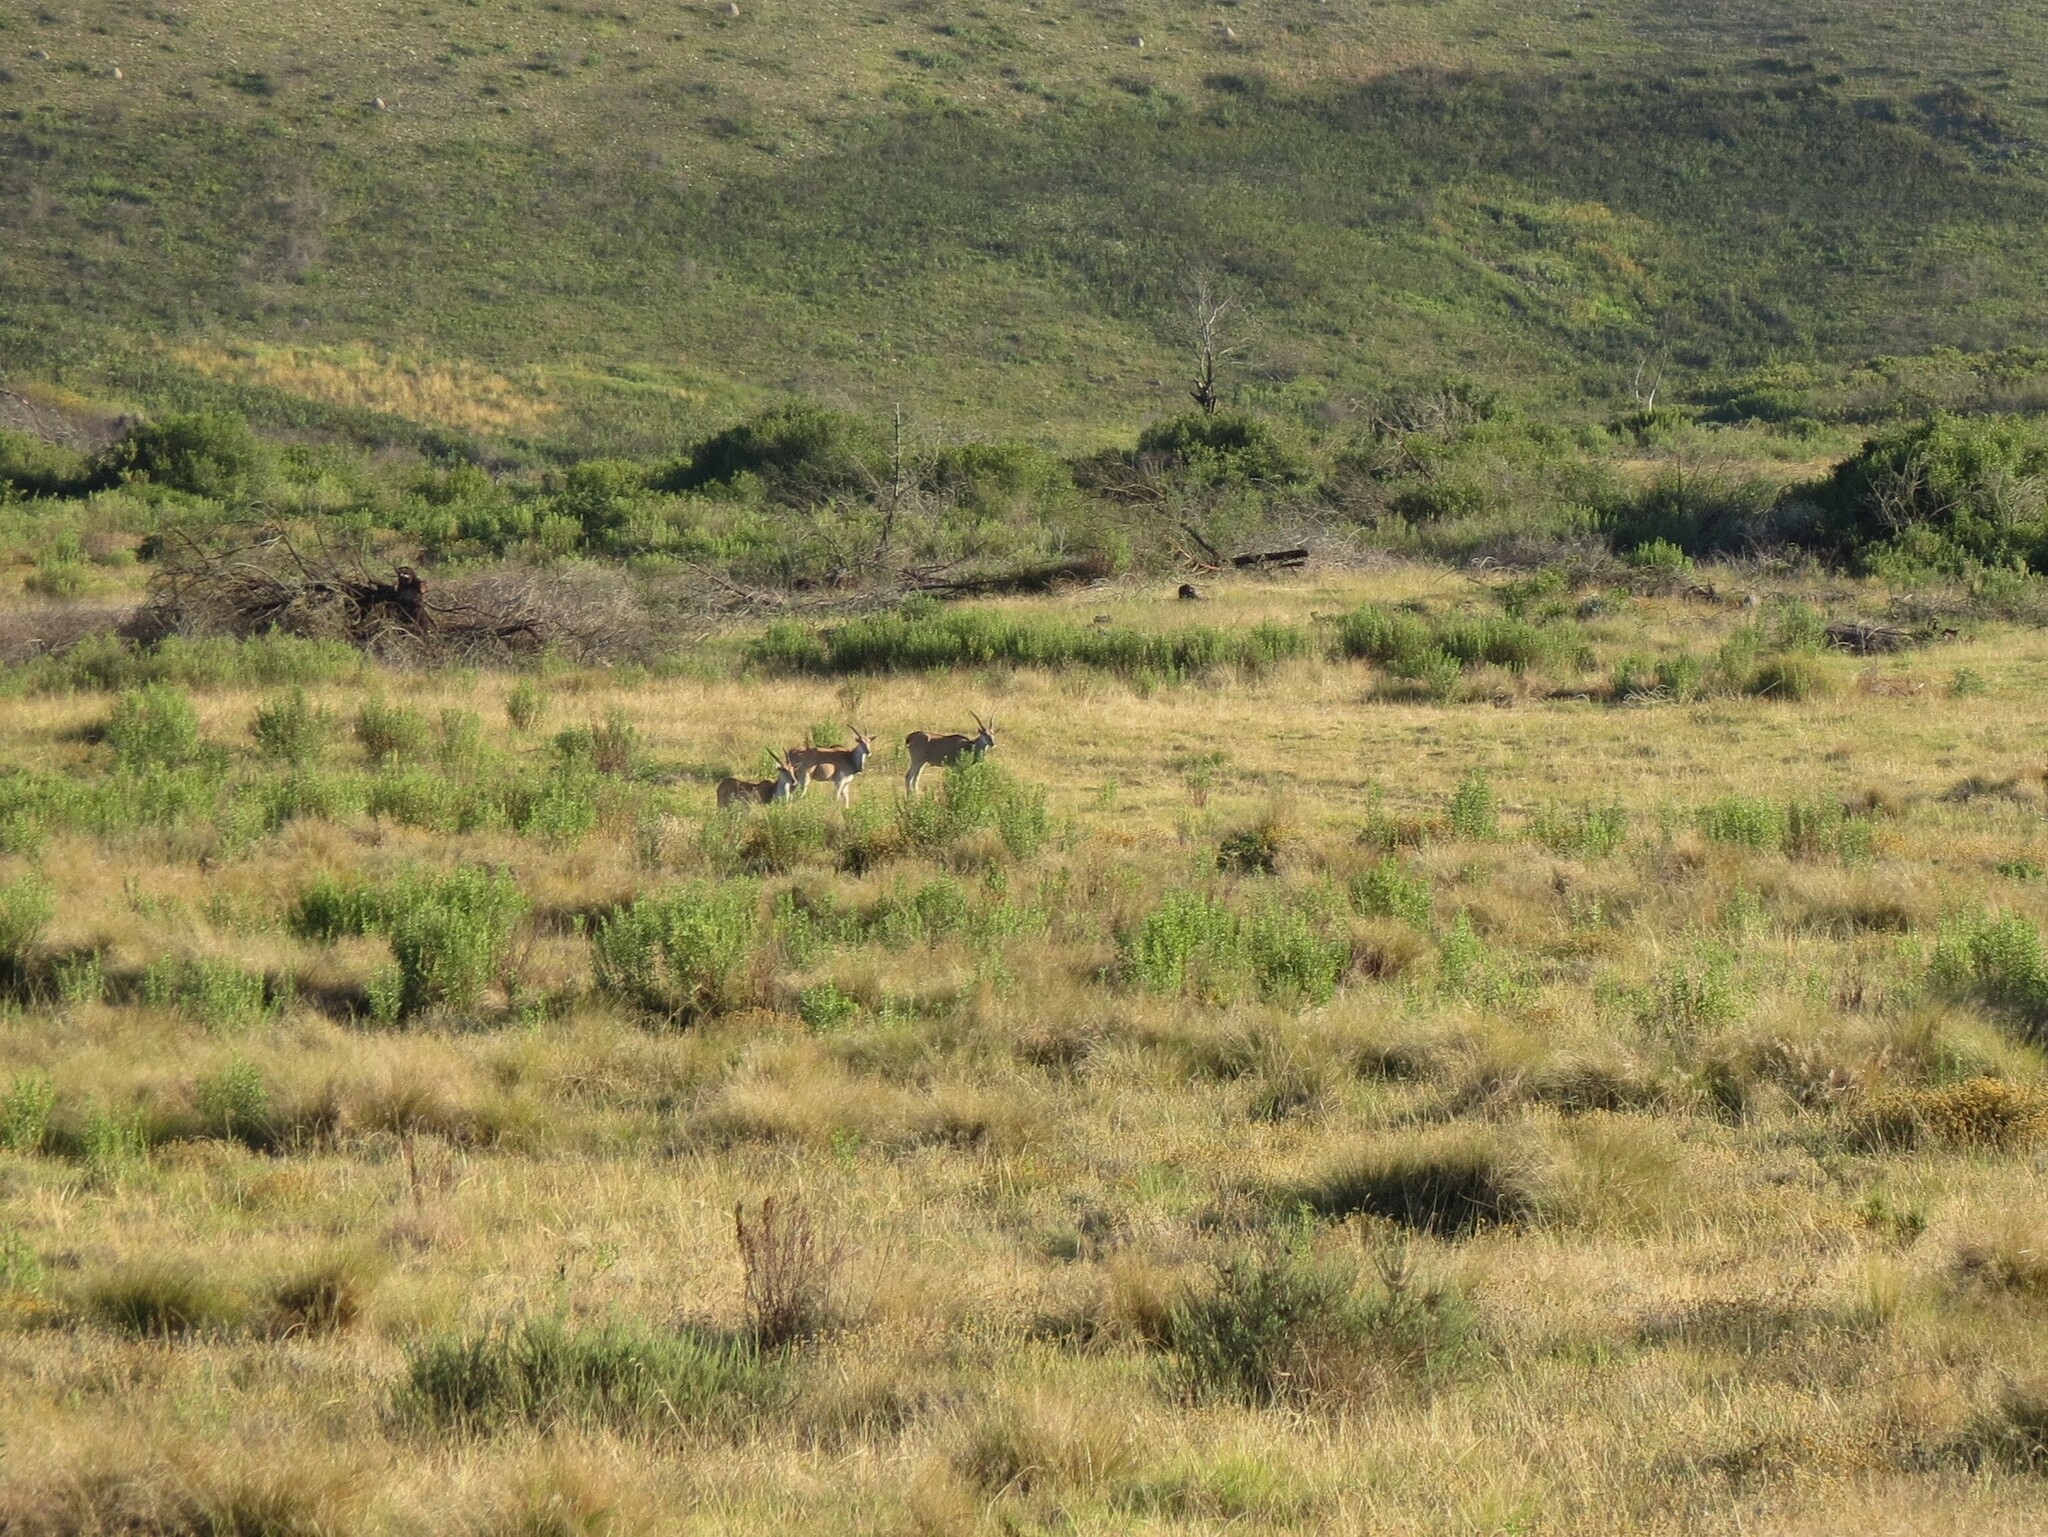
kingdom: Animalia
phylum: Chordata
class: Mammalia
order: Artiodactyla
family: Bovidae
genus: Taurotragus
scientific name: Taurotragus oryx
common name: Common eland
